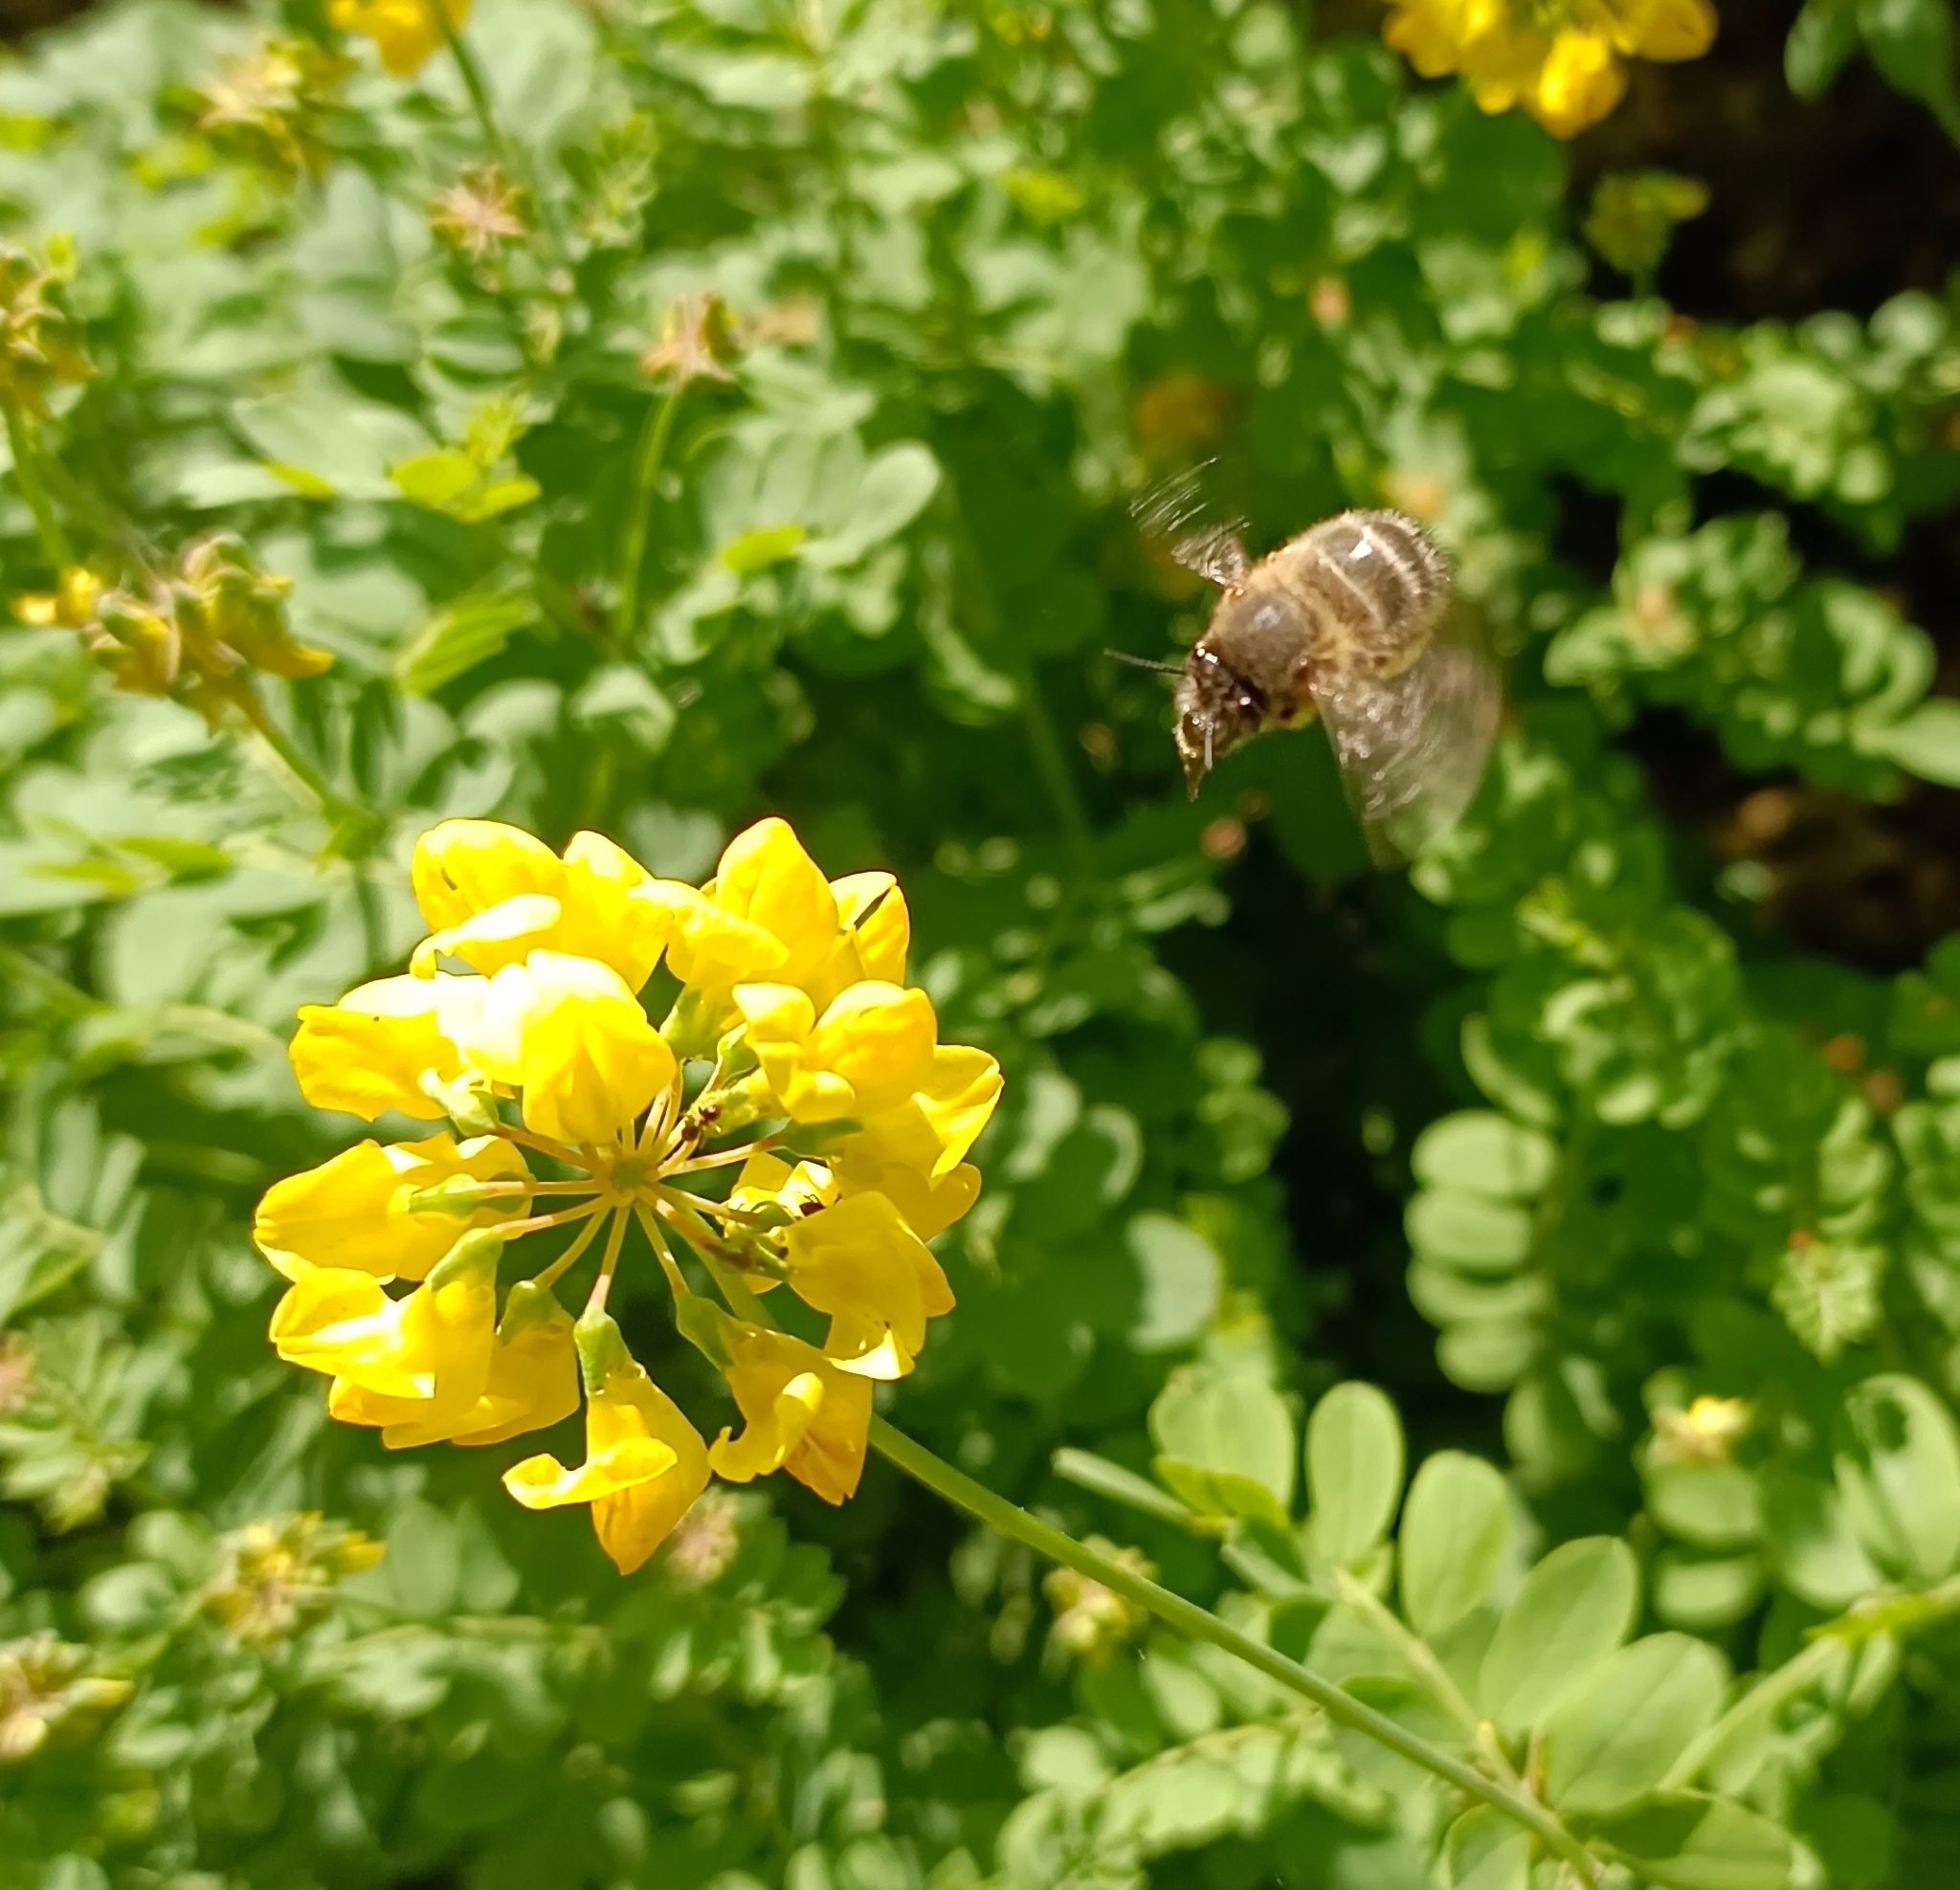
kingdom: Animalia
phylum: Arthropoda
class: Insecta
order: Hymenoptera
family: Apidae
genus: Anthophora
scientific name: Anthophora plumipes
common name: Hairy-footed flower bee
